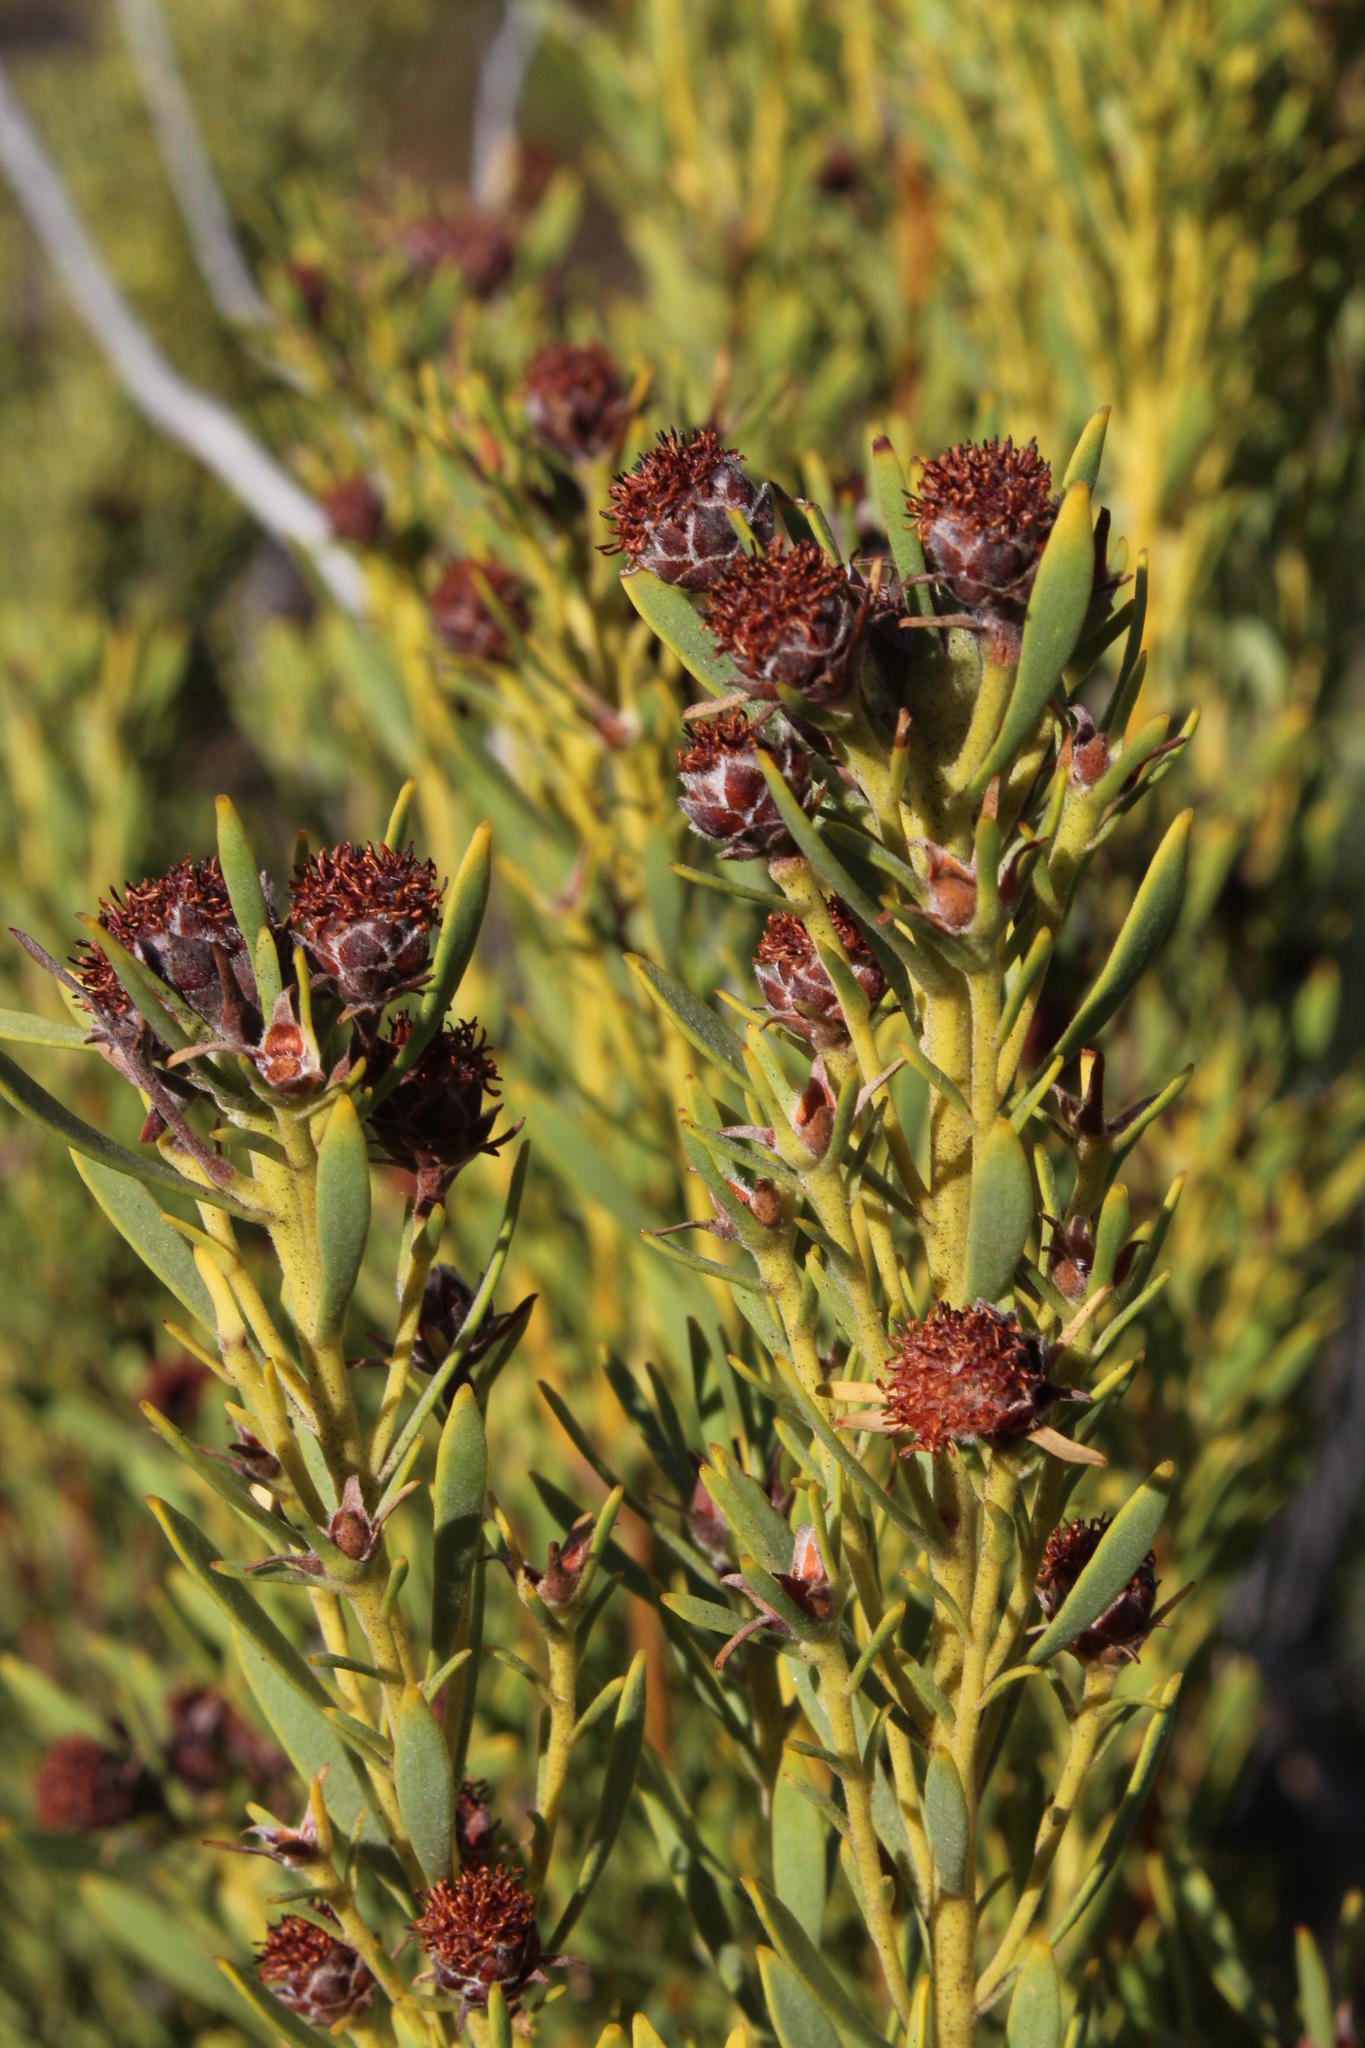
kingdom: Plantae
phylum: Tracheophyta
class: Magnoliopsida
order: Proteales
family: Proteaceae
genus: Leucadendron
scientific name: Leucadendron pubescens
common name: Grey conebush
